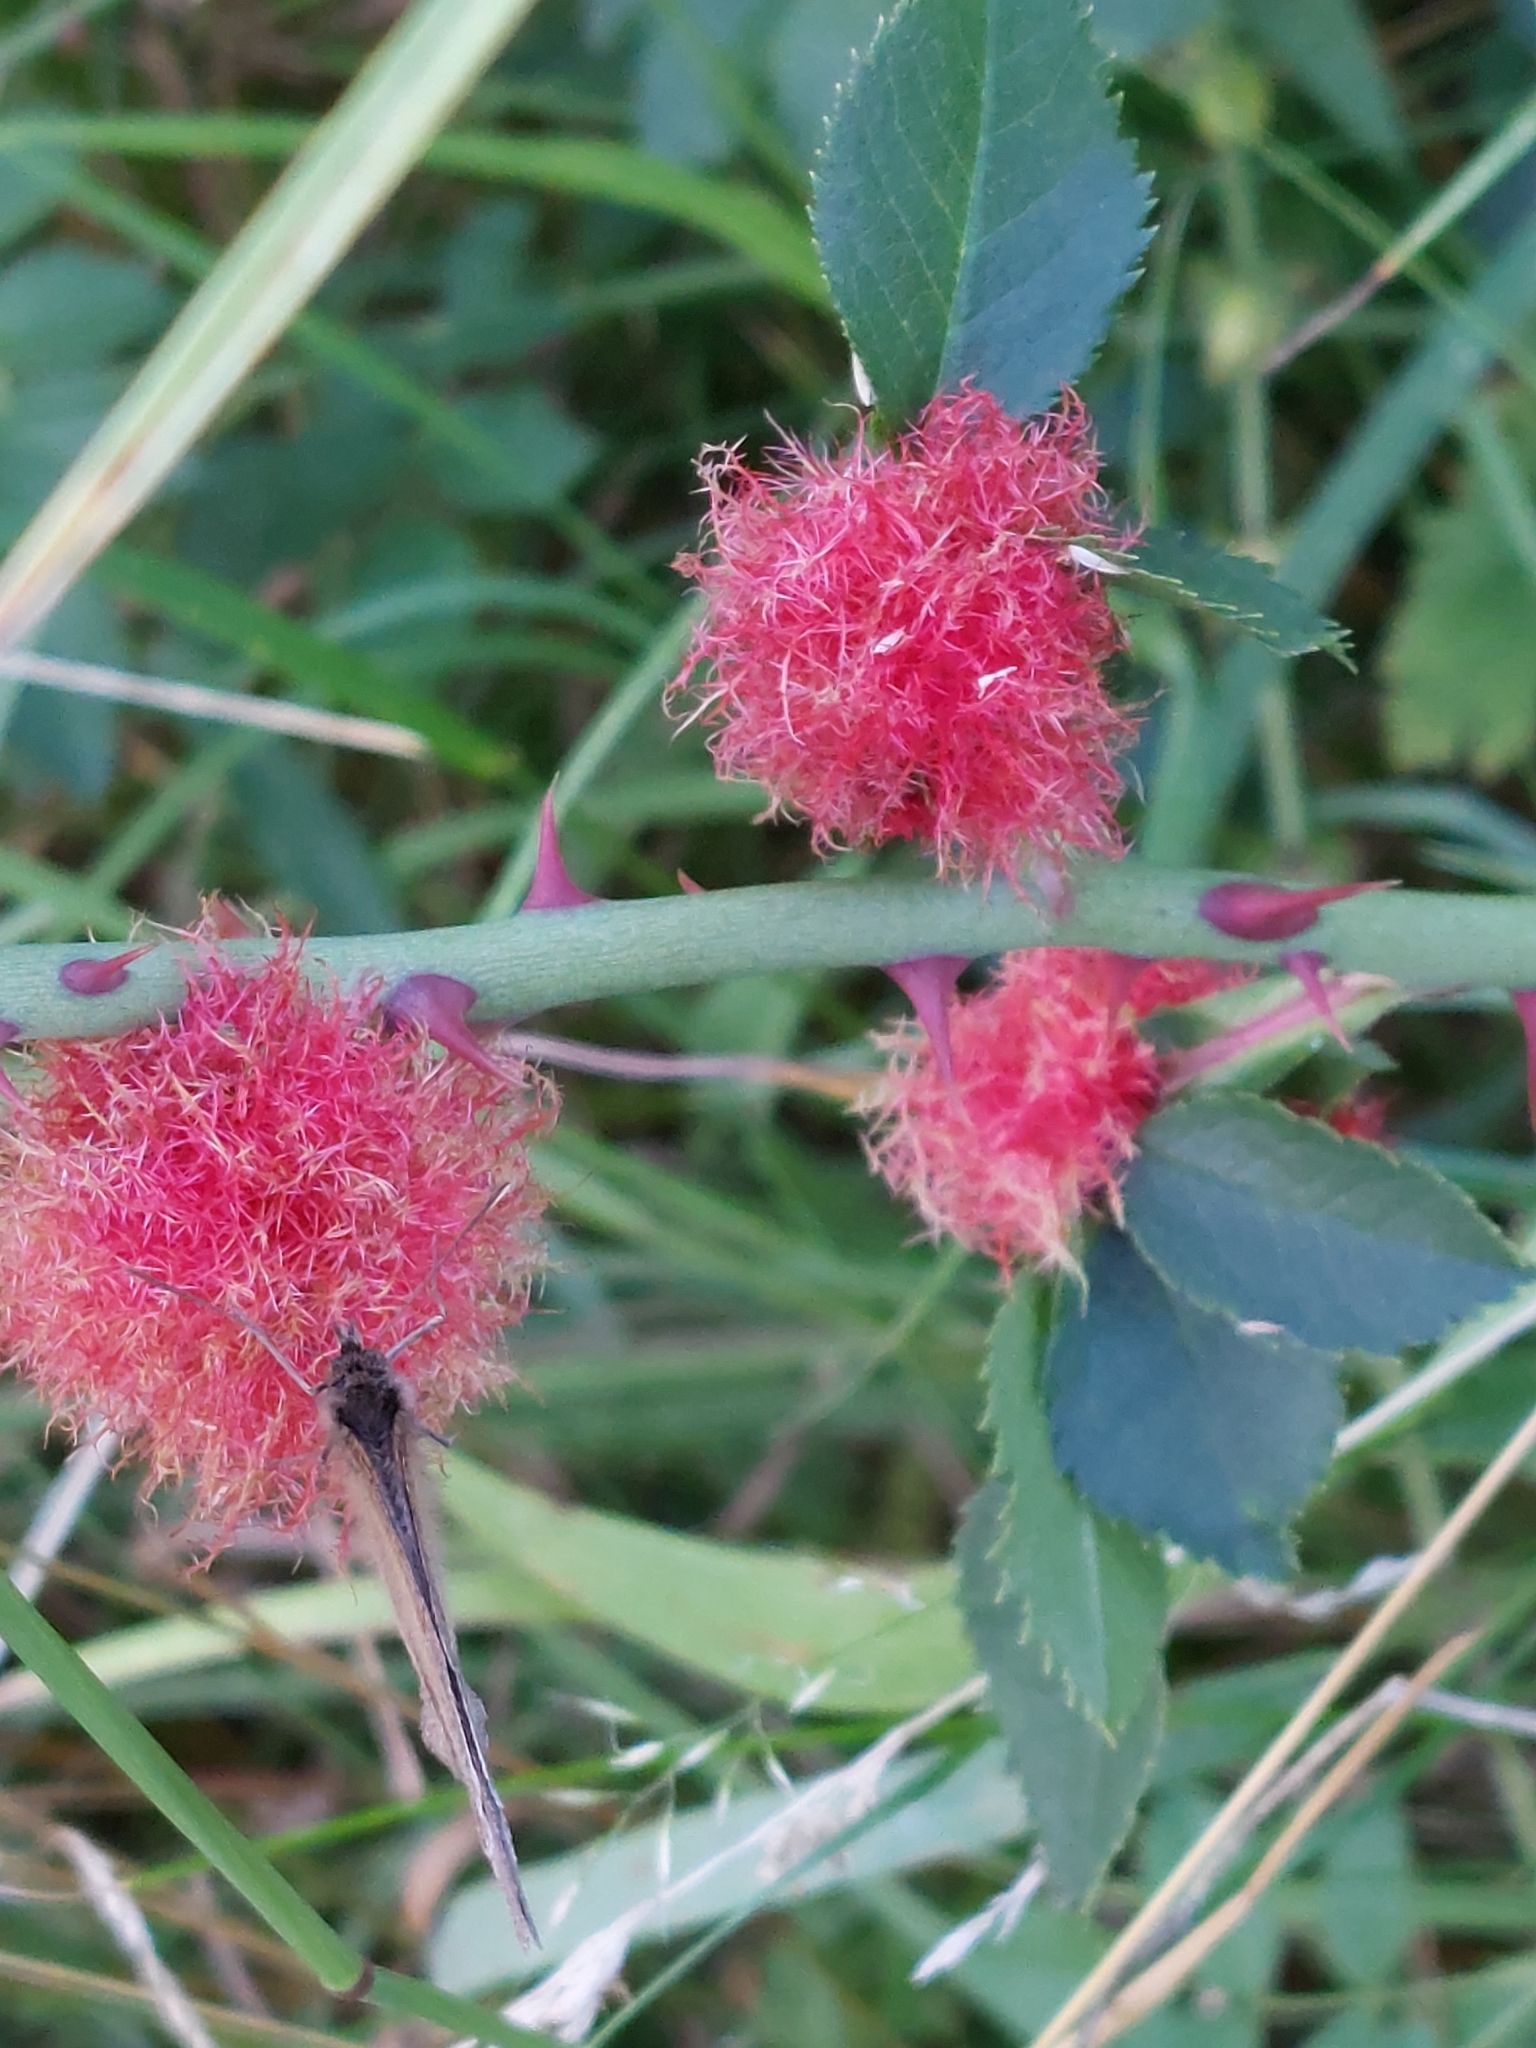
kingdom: Animalia
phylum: Arthropoda
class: Insecta
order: Hymenoptera
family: Cynipidae
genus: Diplolepis
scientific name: Diplolepis rosae
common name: Bedeguar gall
